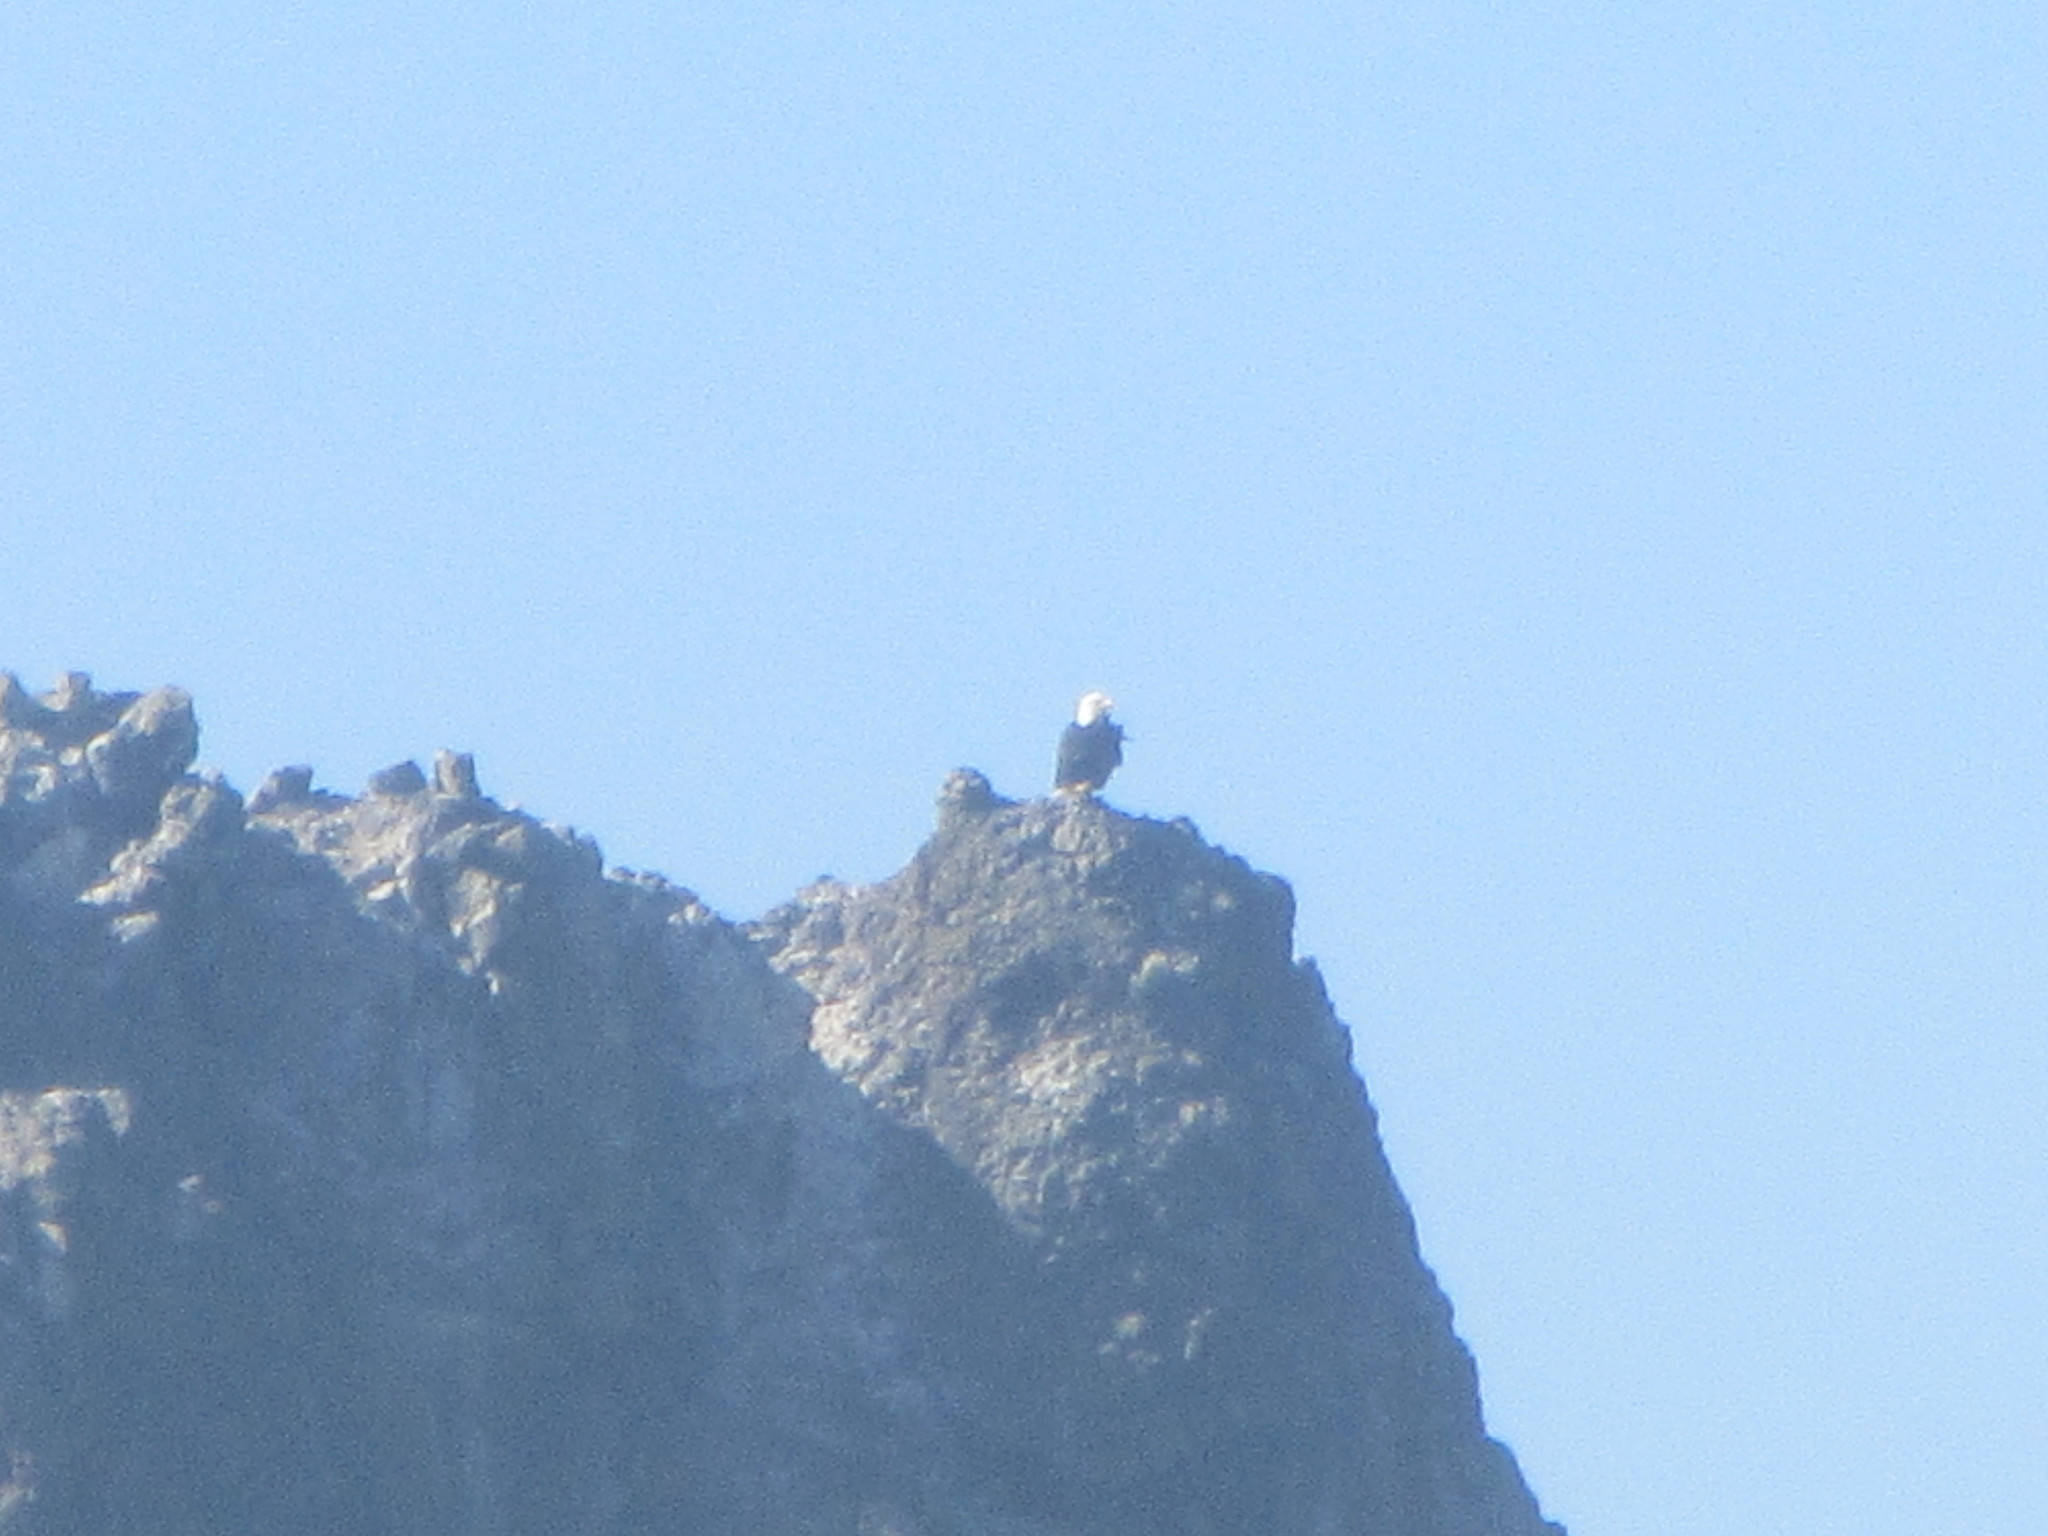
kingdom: Animalia
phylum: Chordata
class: Aves
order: Accipitriformes
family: Accipitridae
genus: Haliaeetus
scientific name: Haliaeetus leucocephalus
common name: Bald eagle
